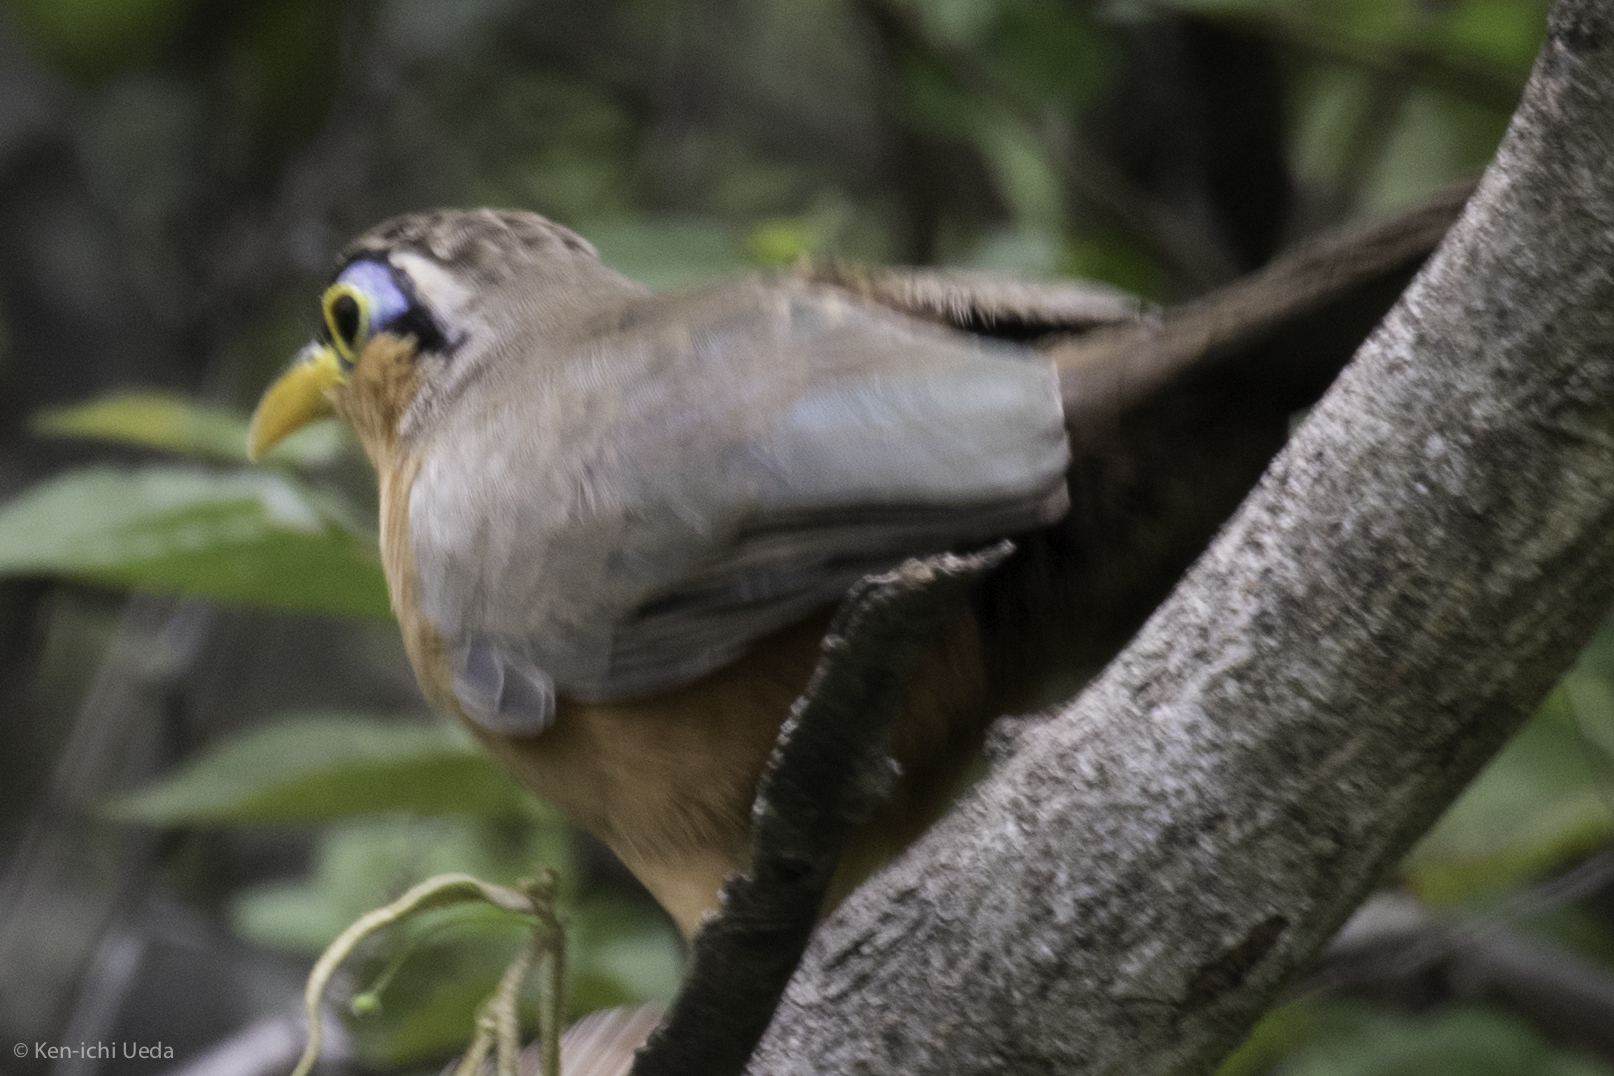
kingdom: Animalia
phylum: Chordata
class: Aves
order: Cuculiformes
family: Cuculidae
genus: Morococcyx
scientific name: Morococcyx erythropygus
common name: Lesser ground-cuckoo
